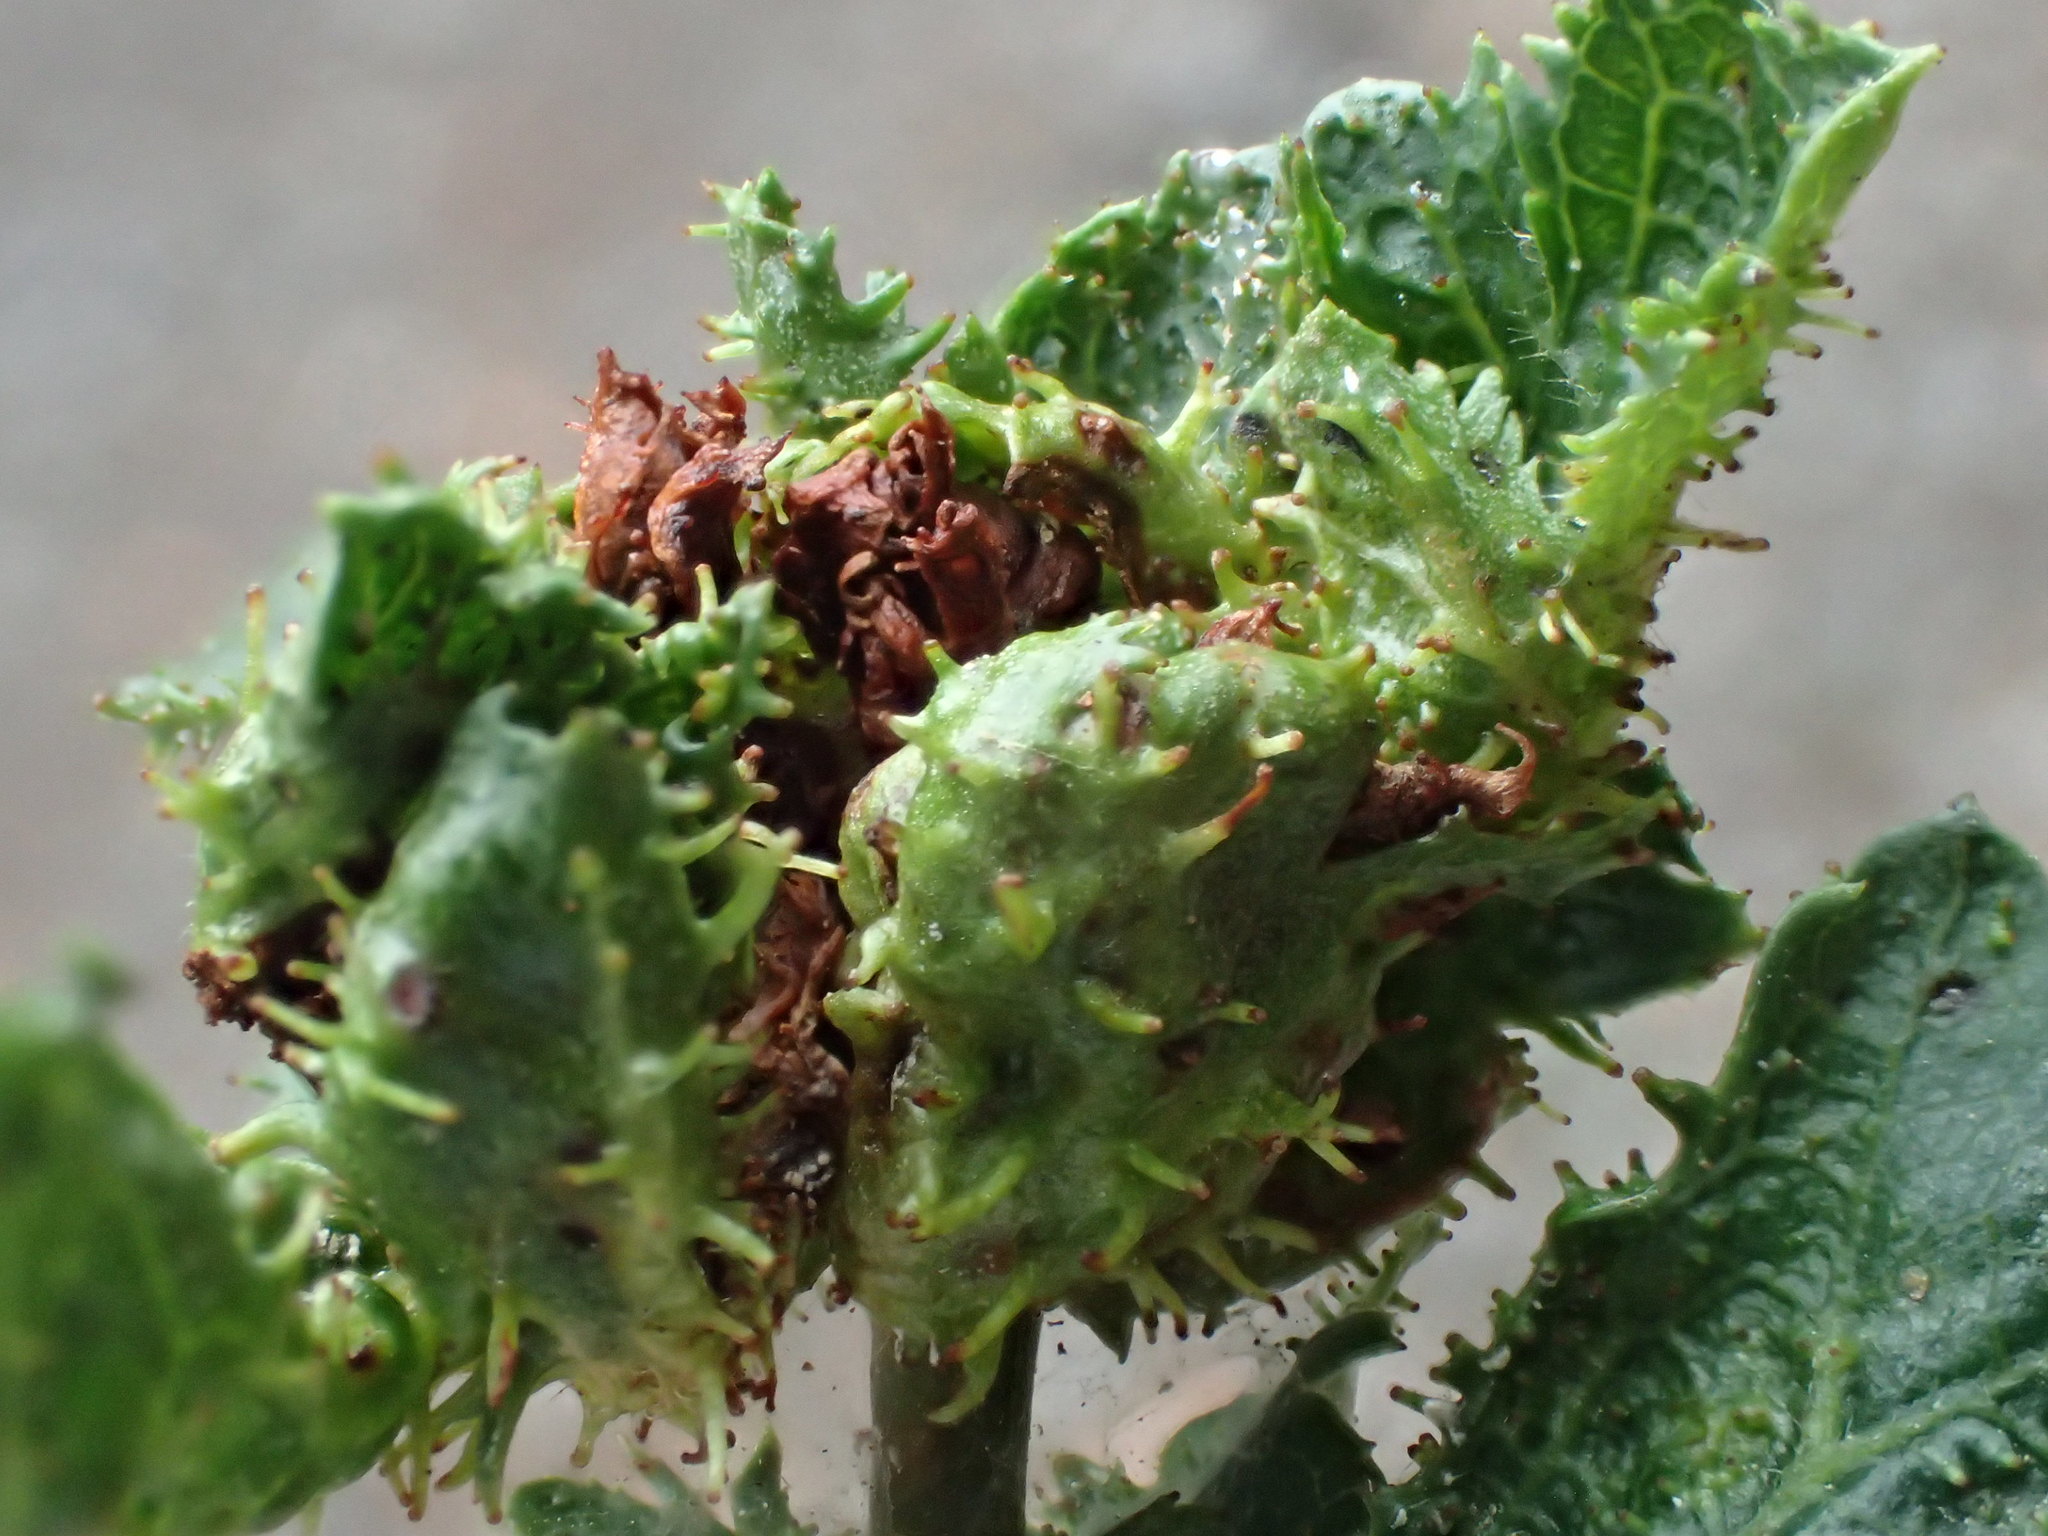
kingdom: Animalia
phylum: Arthropoda
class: Insecta
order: Diptera
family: Cecidomyiidae
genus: Dasineura
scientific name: Dasineura crataegi
